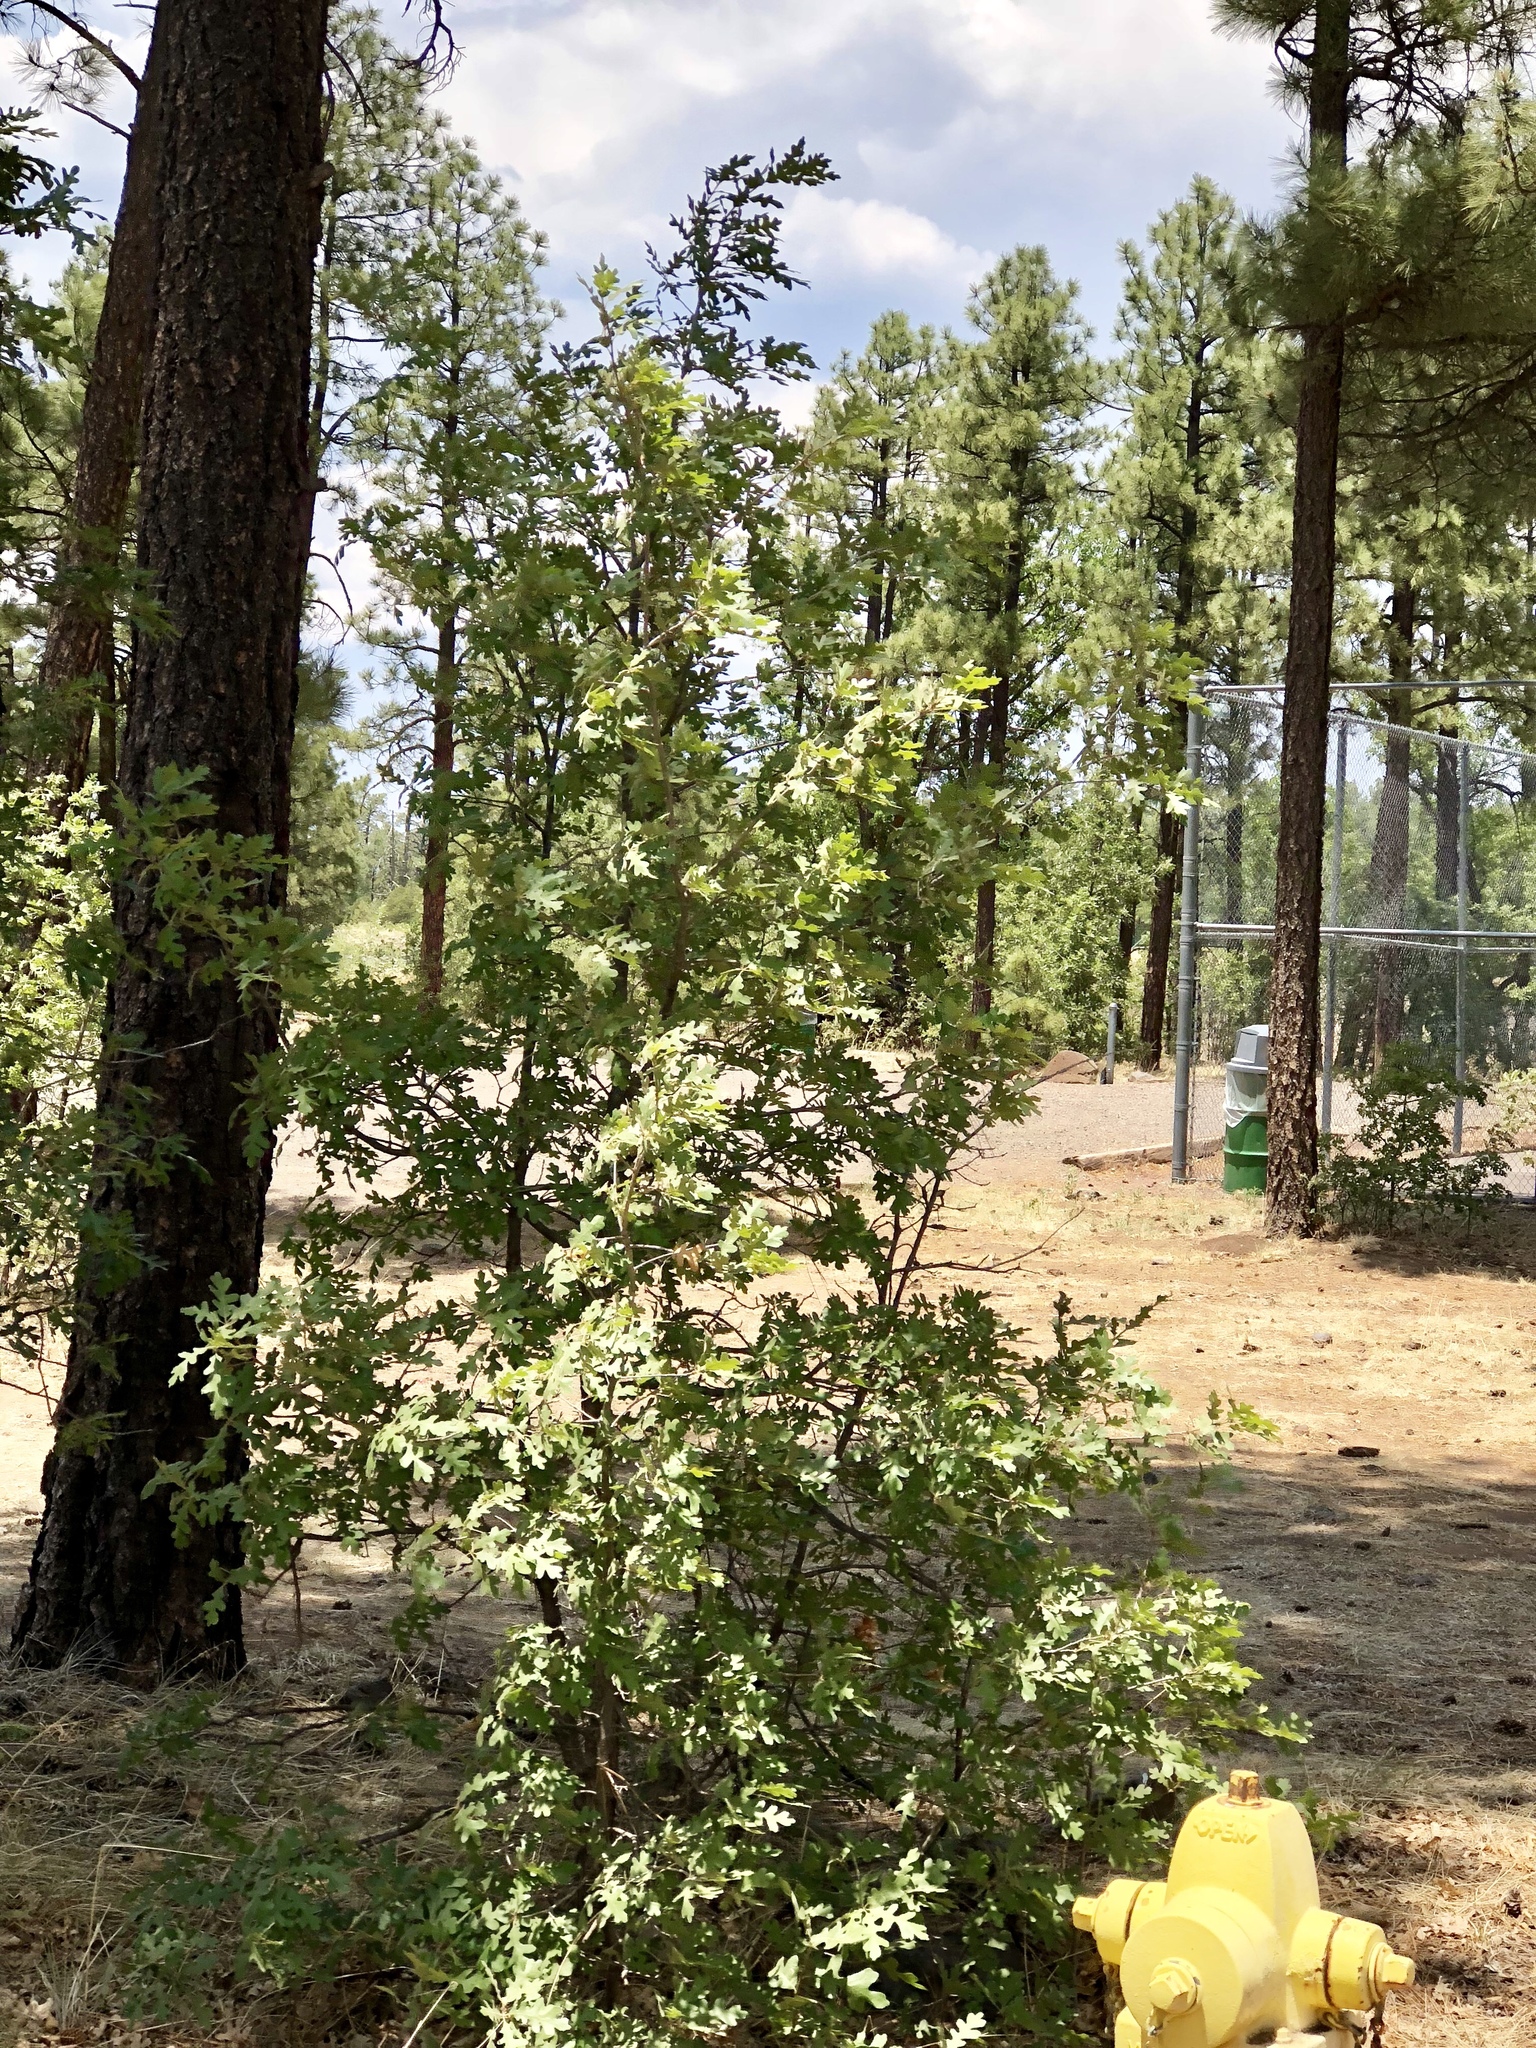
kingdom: Plantae
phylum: Tracheophyta
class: Magnoliopsida
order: Fagales
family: Fagaceae
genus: Quercus
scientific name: Quercus gambelii
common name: Gambel oak
